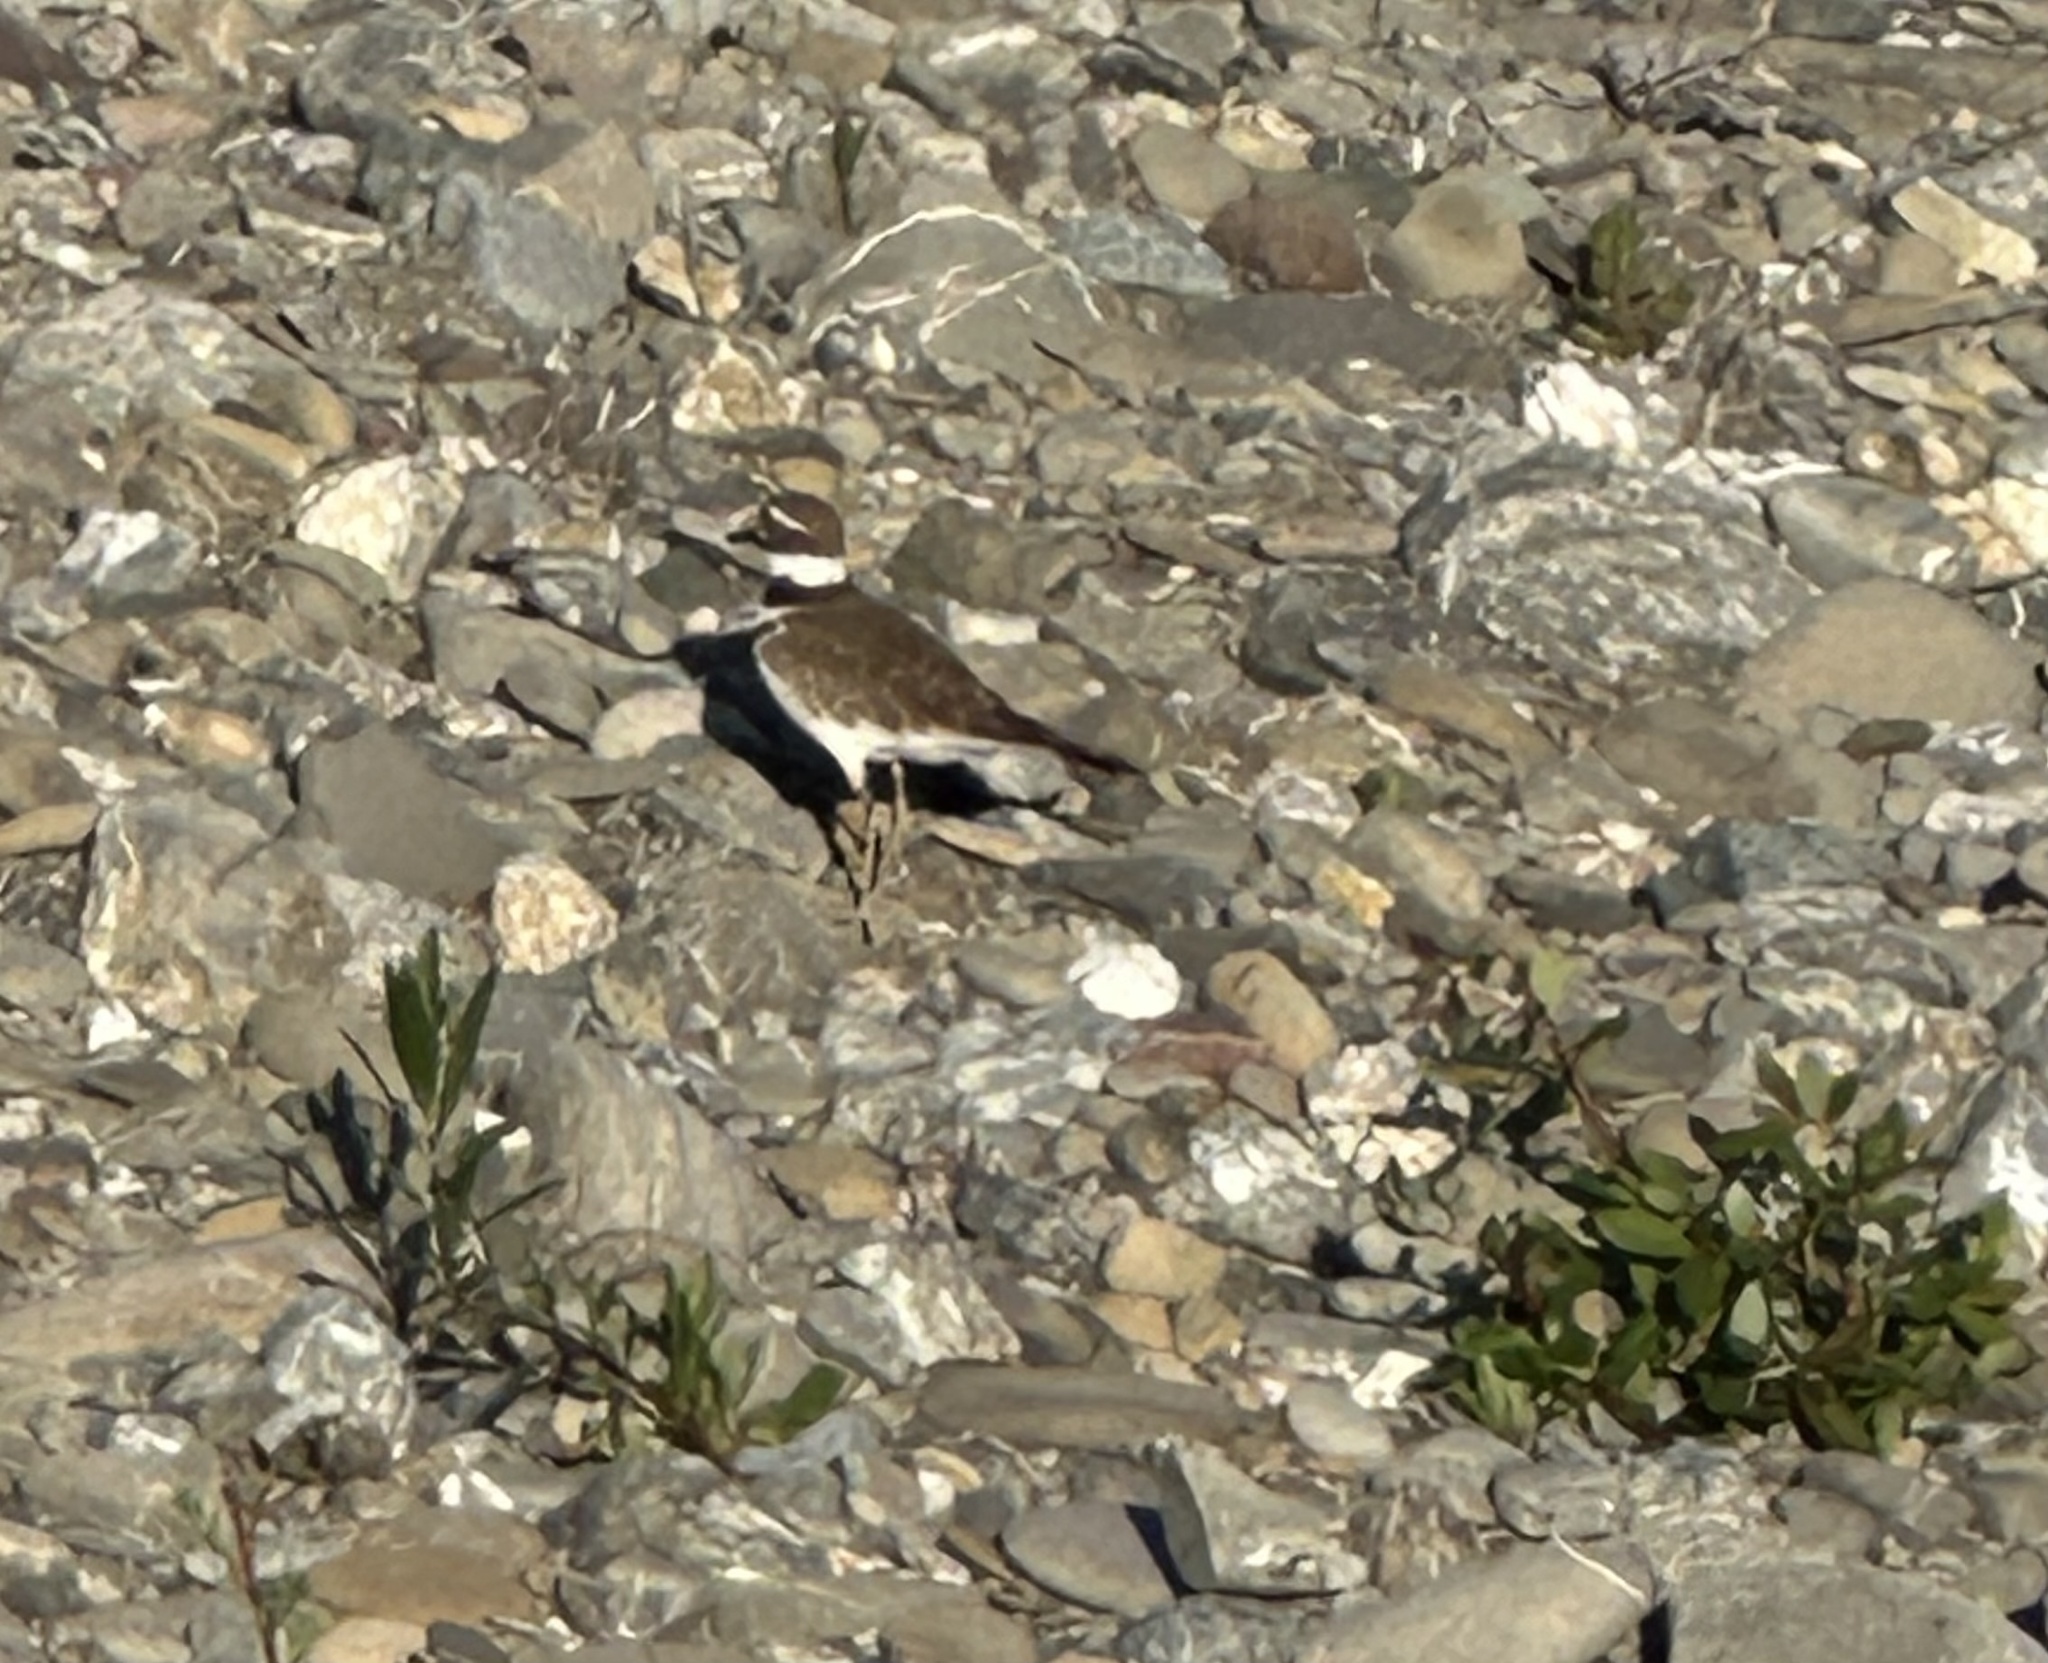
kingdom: Animalia
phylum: Chordata
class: Aves
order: Charadriiformes
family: Charadriidae
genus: Charadrius
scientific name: Charadrius vociferus
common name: Killdeer
